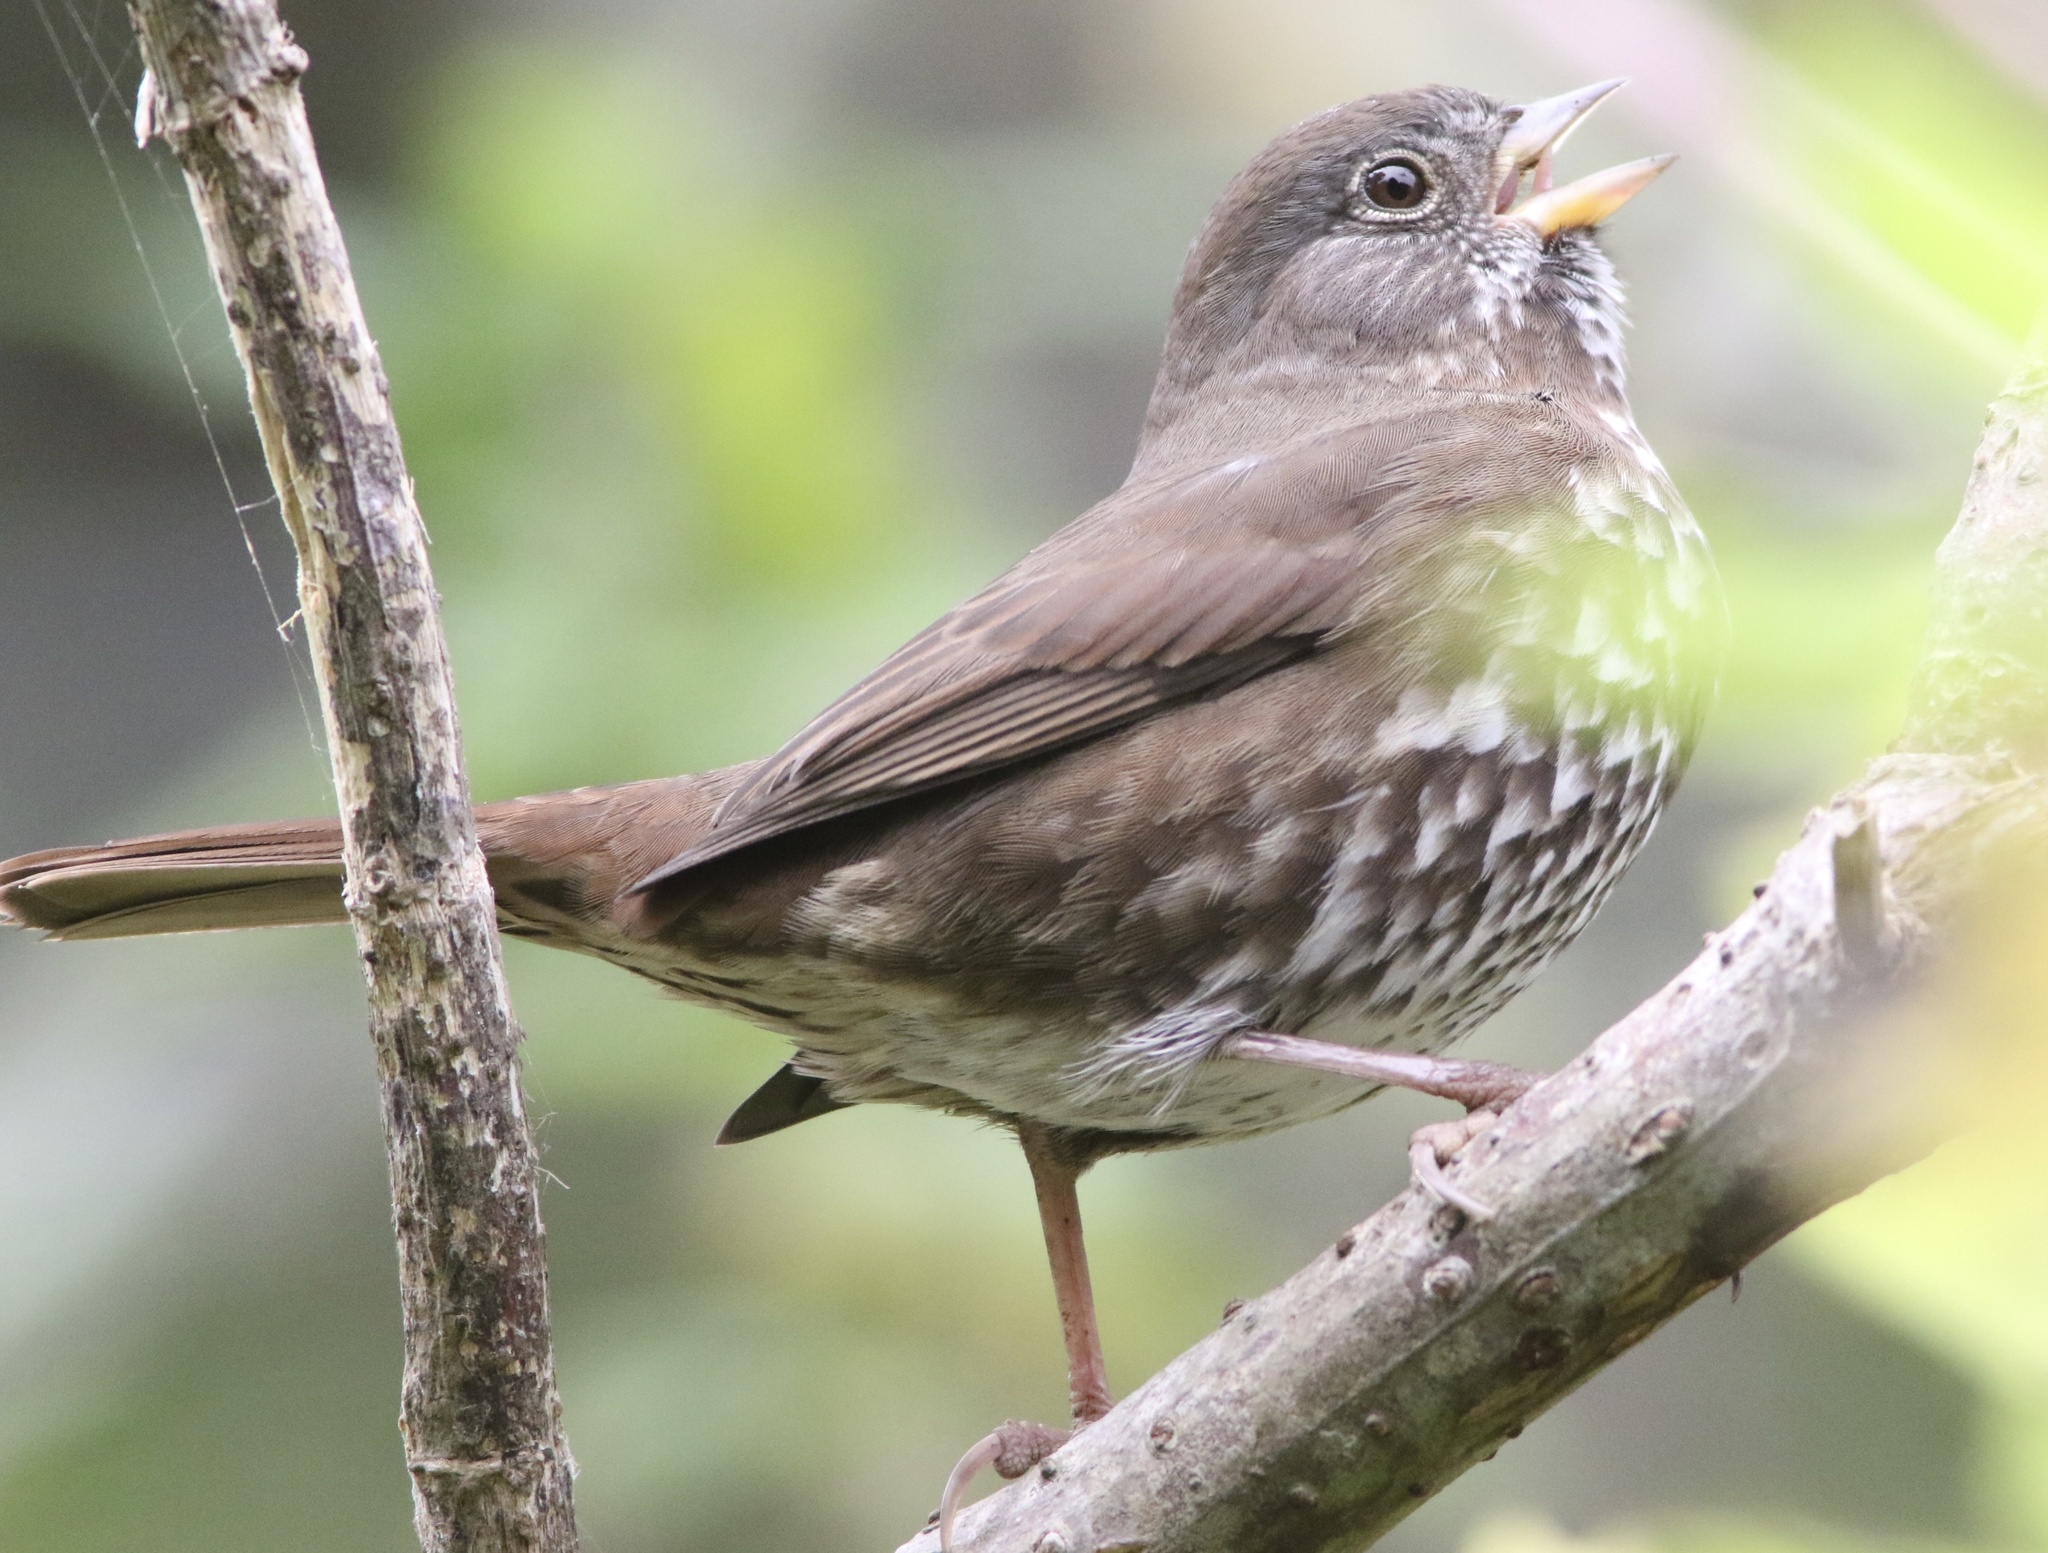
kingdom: Animalia
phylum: Chordata
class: Aves
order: Passeriformes
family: Passerellidae
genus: Passerella
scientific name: Passerella iliaca
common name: Fox sparrow
